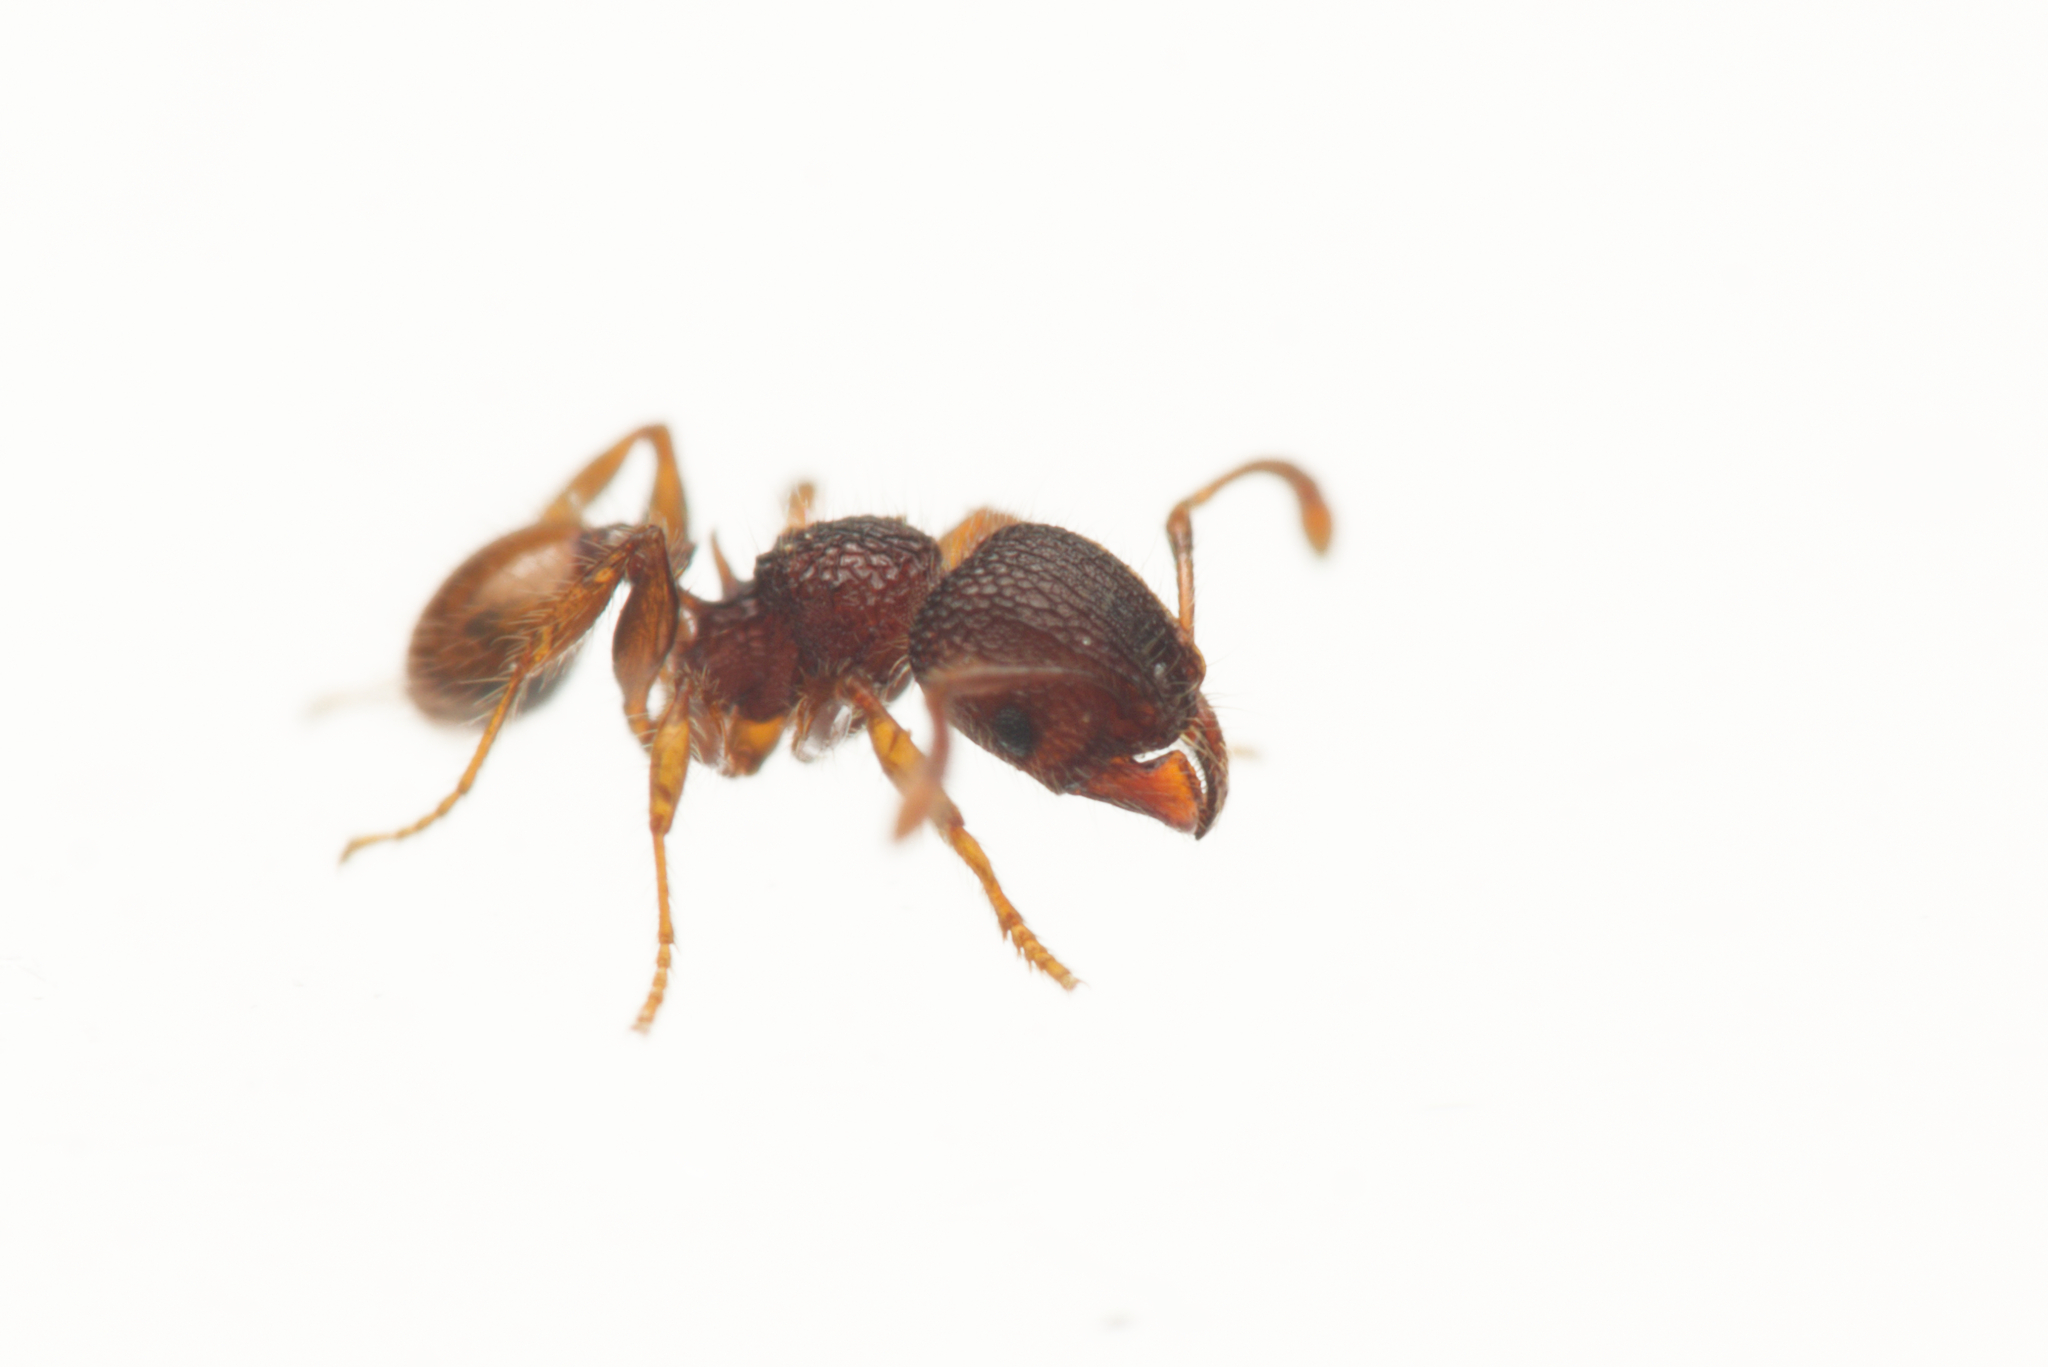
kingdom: Animalia
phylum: Arthropoda
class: Insecta
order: Hymenoptera
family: Formicidae
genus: Pheidole
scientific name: Pheidole longiceps
